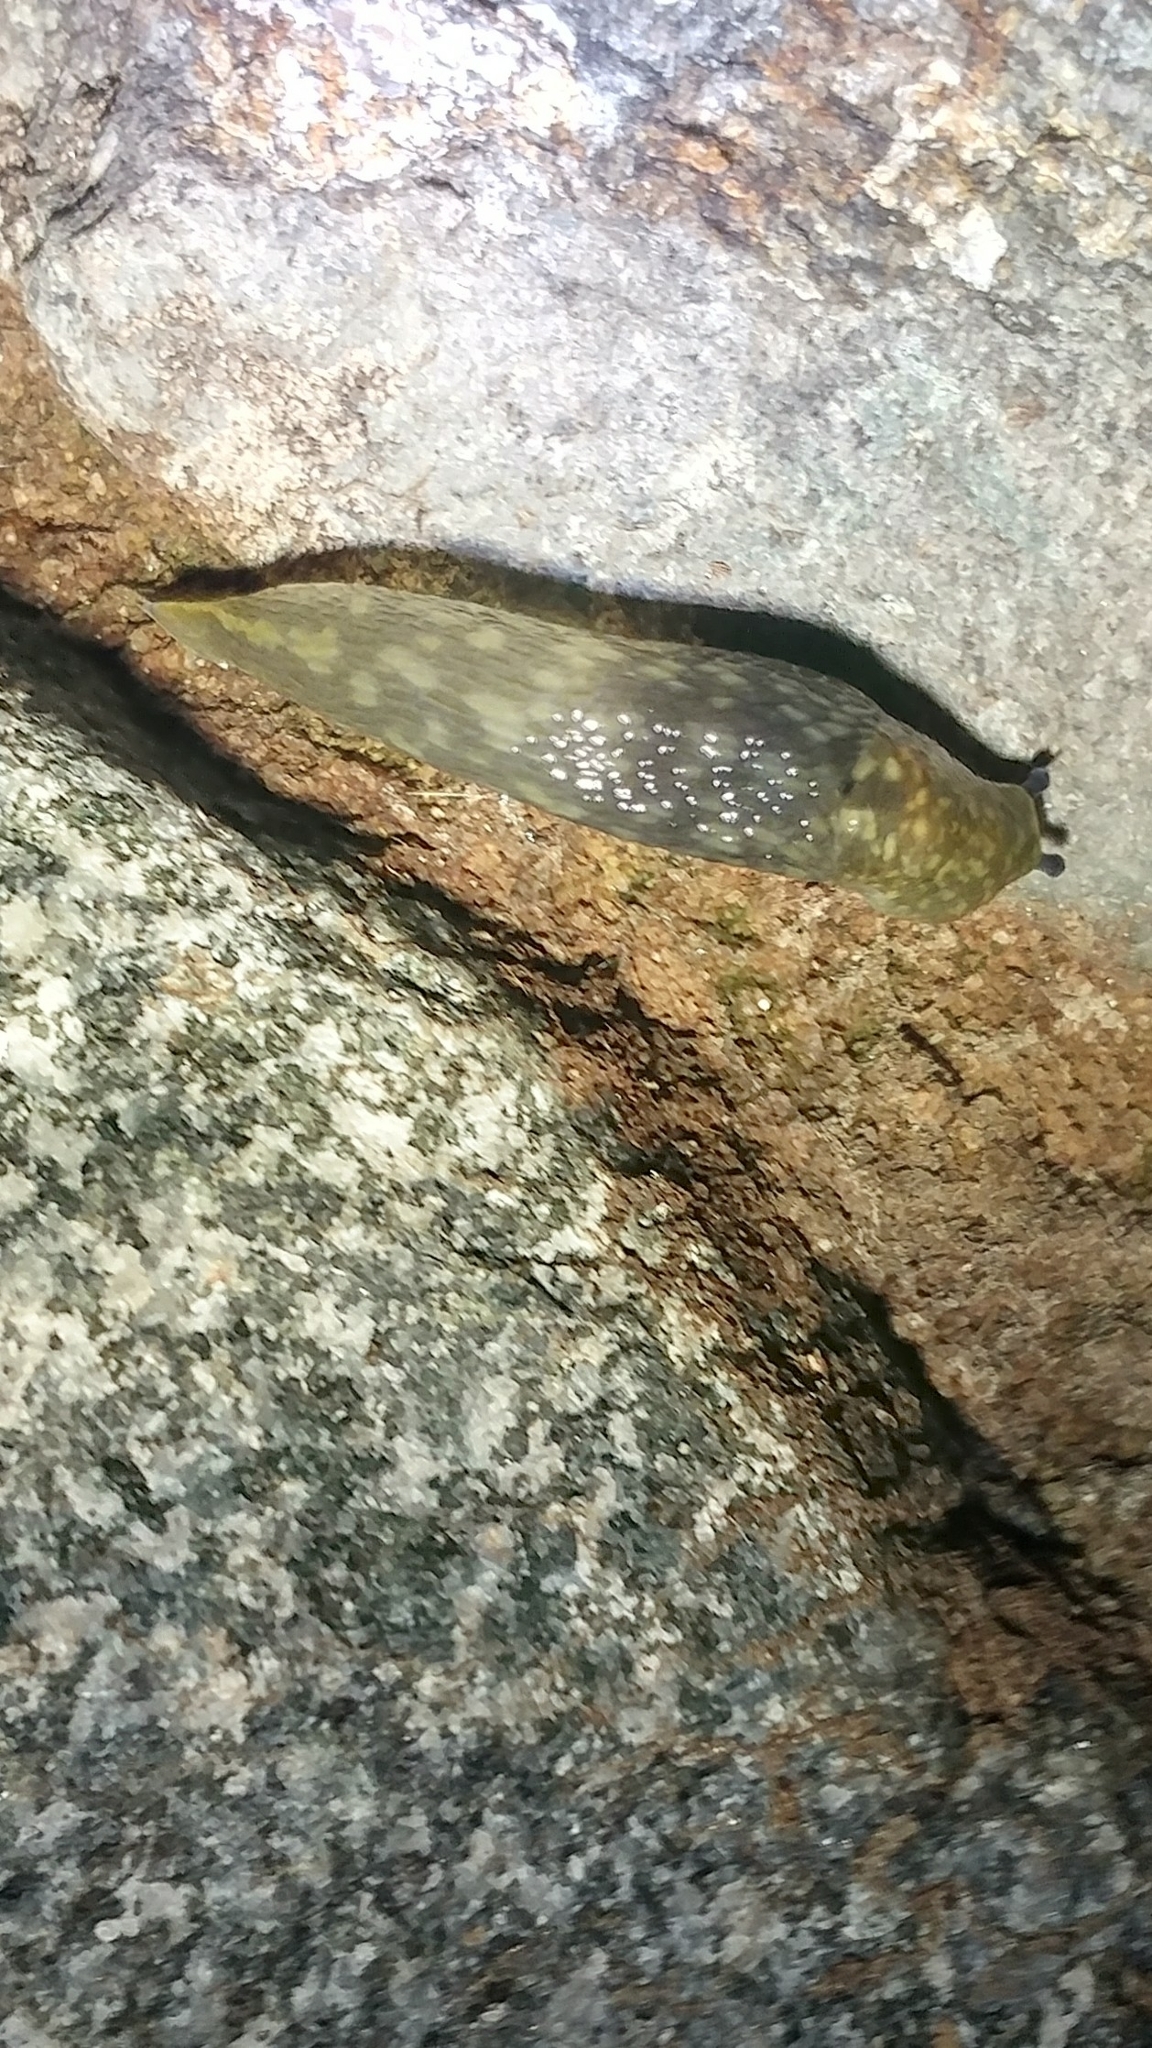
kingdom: Animalia
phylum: Mollusca
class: Gastropoda
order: Stylommatophora
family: Limacidae
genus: Limacus
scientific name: Limacus flavus
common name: Yellow gardenslug
